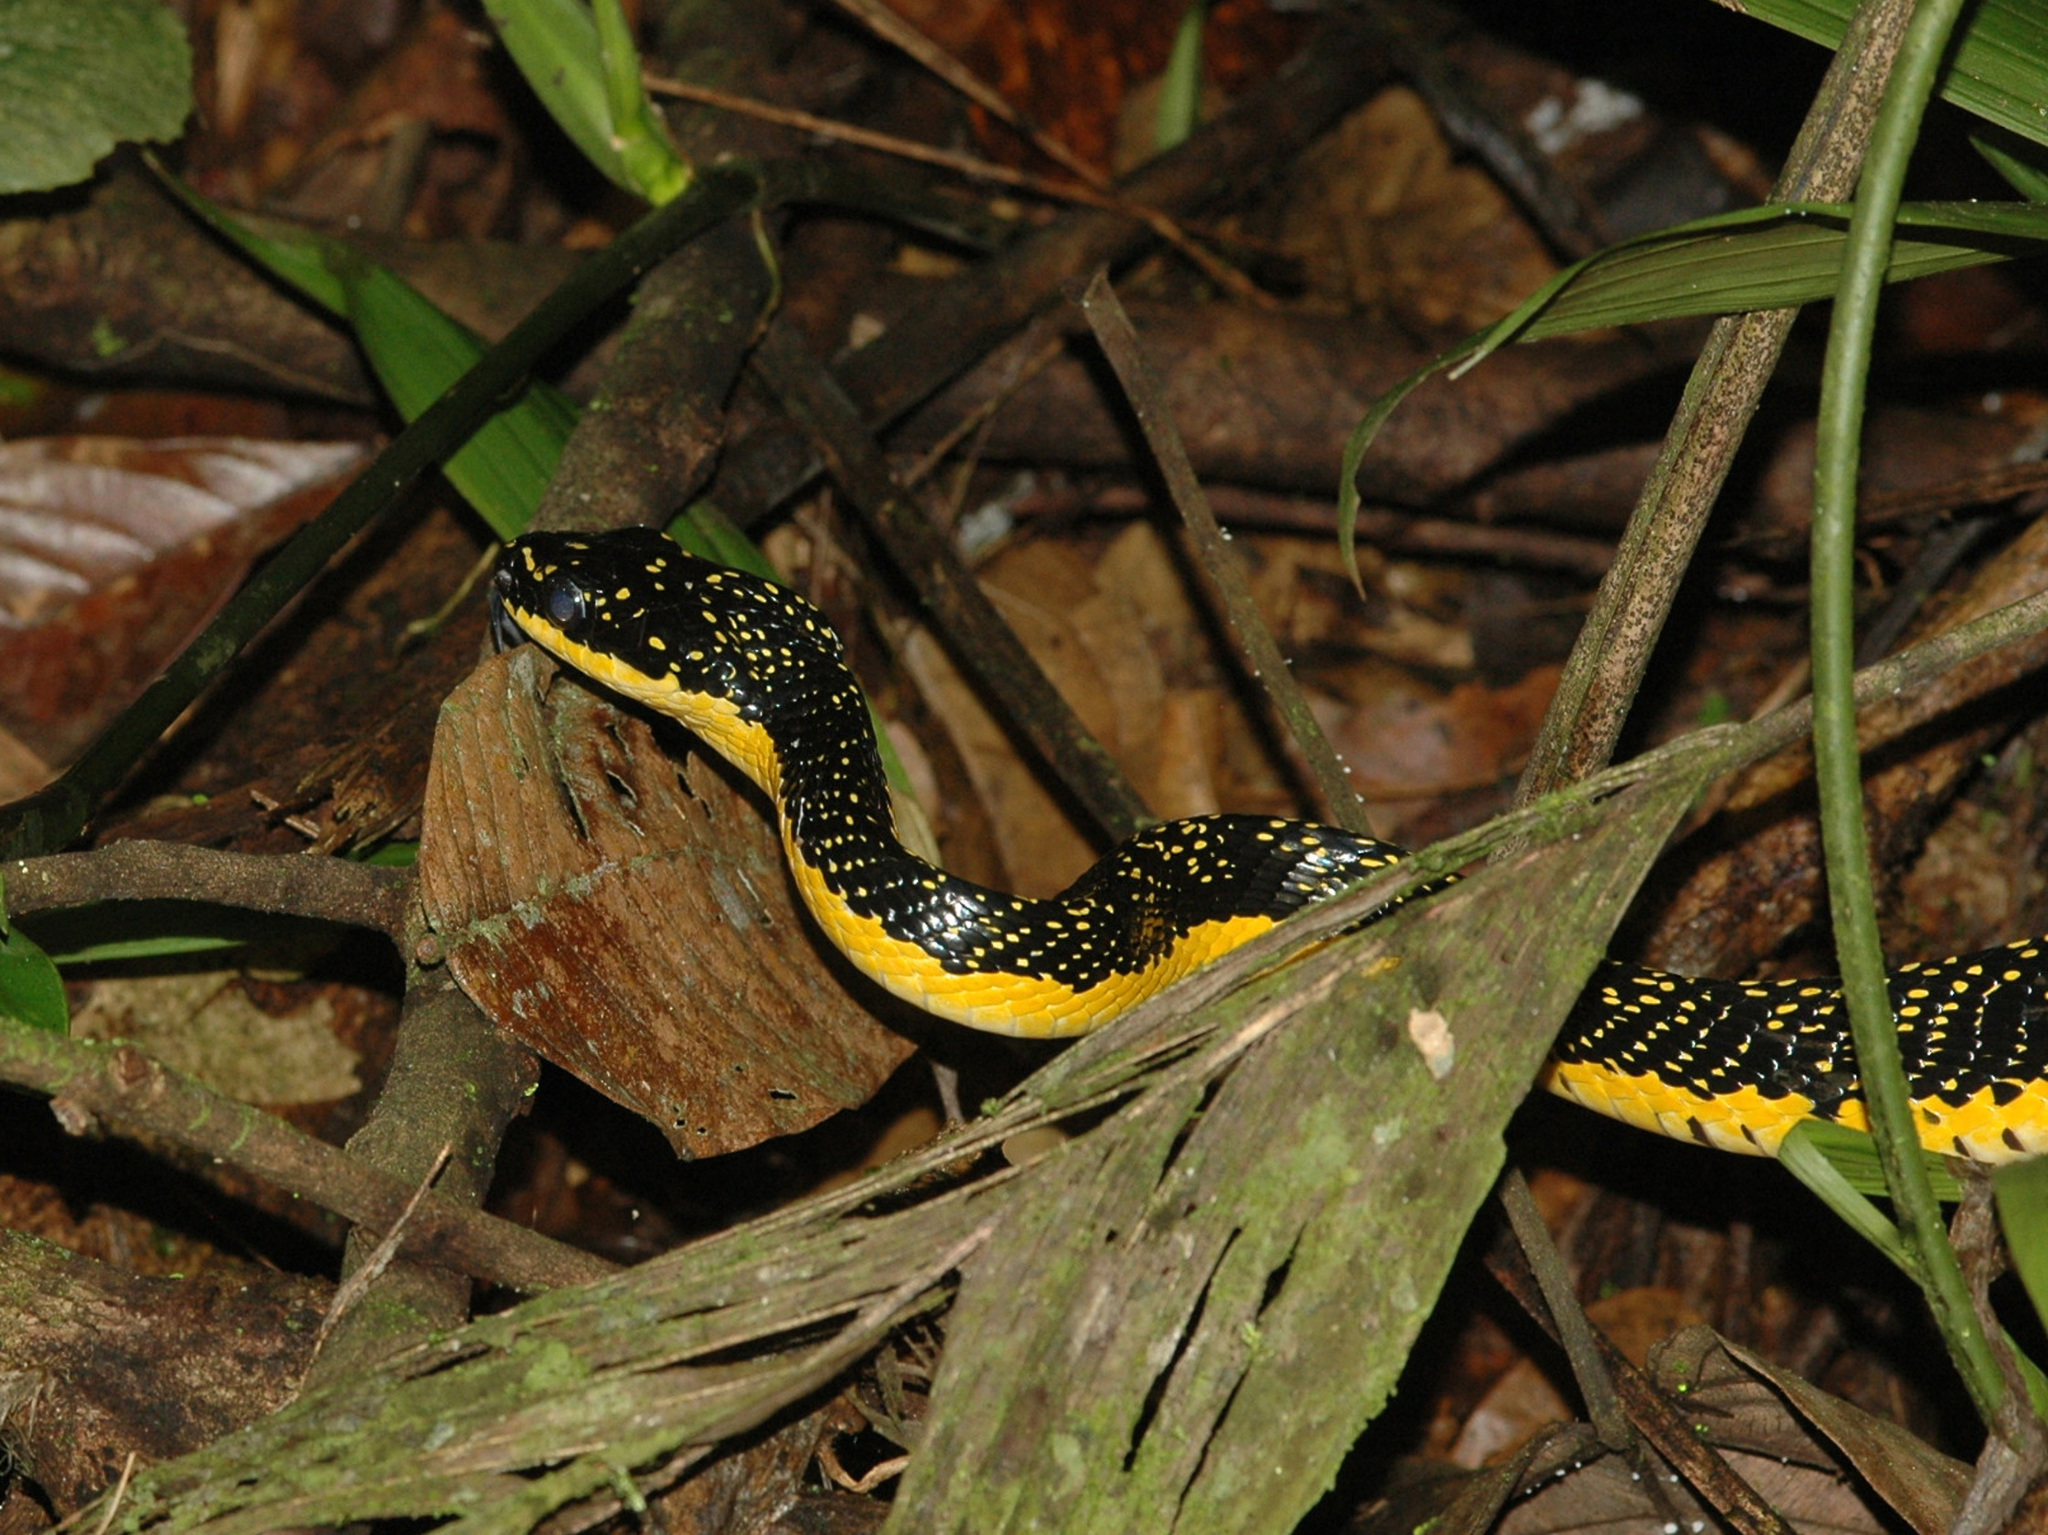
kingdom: Animalia
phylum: Chordata
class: Squamata
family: Colubridae
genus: Phrynonax
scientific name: Phrynonax shropshirei
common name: Shropshire's puffing snake
